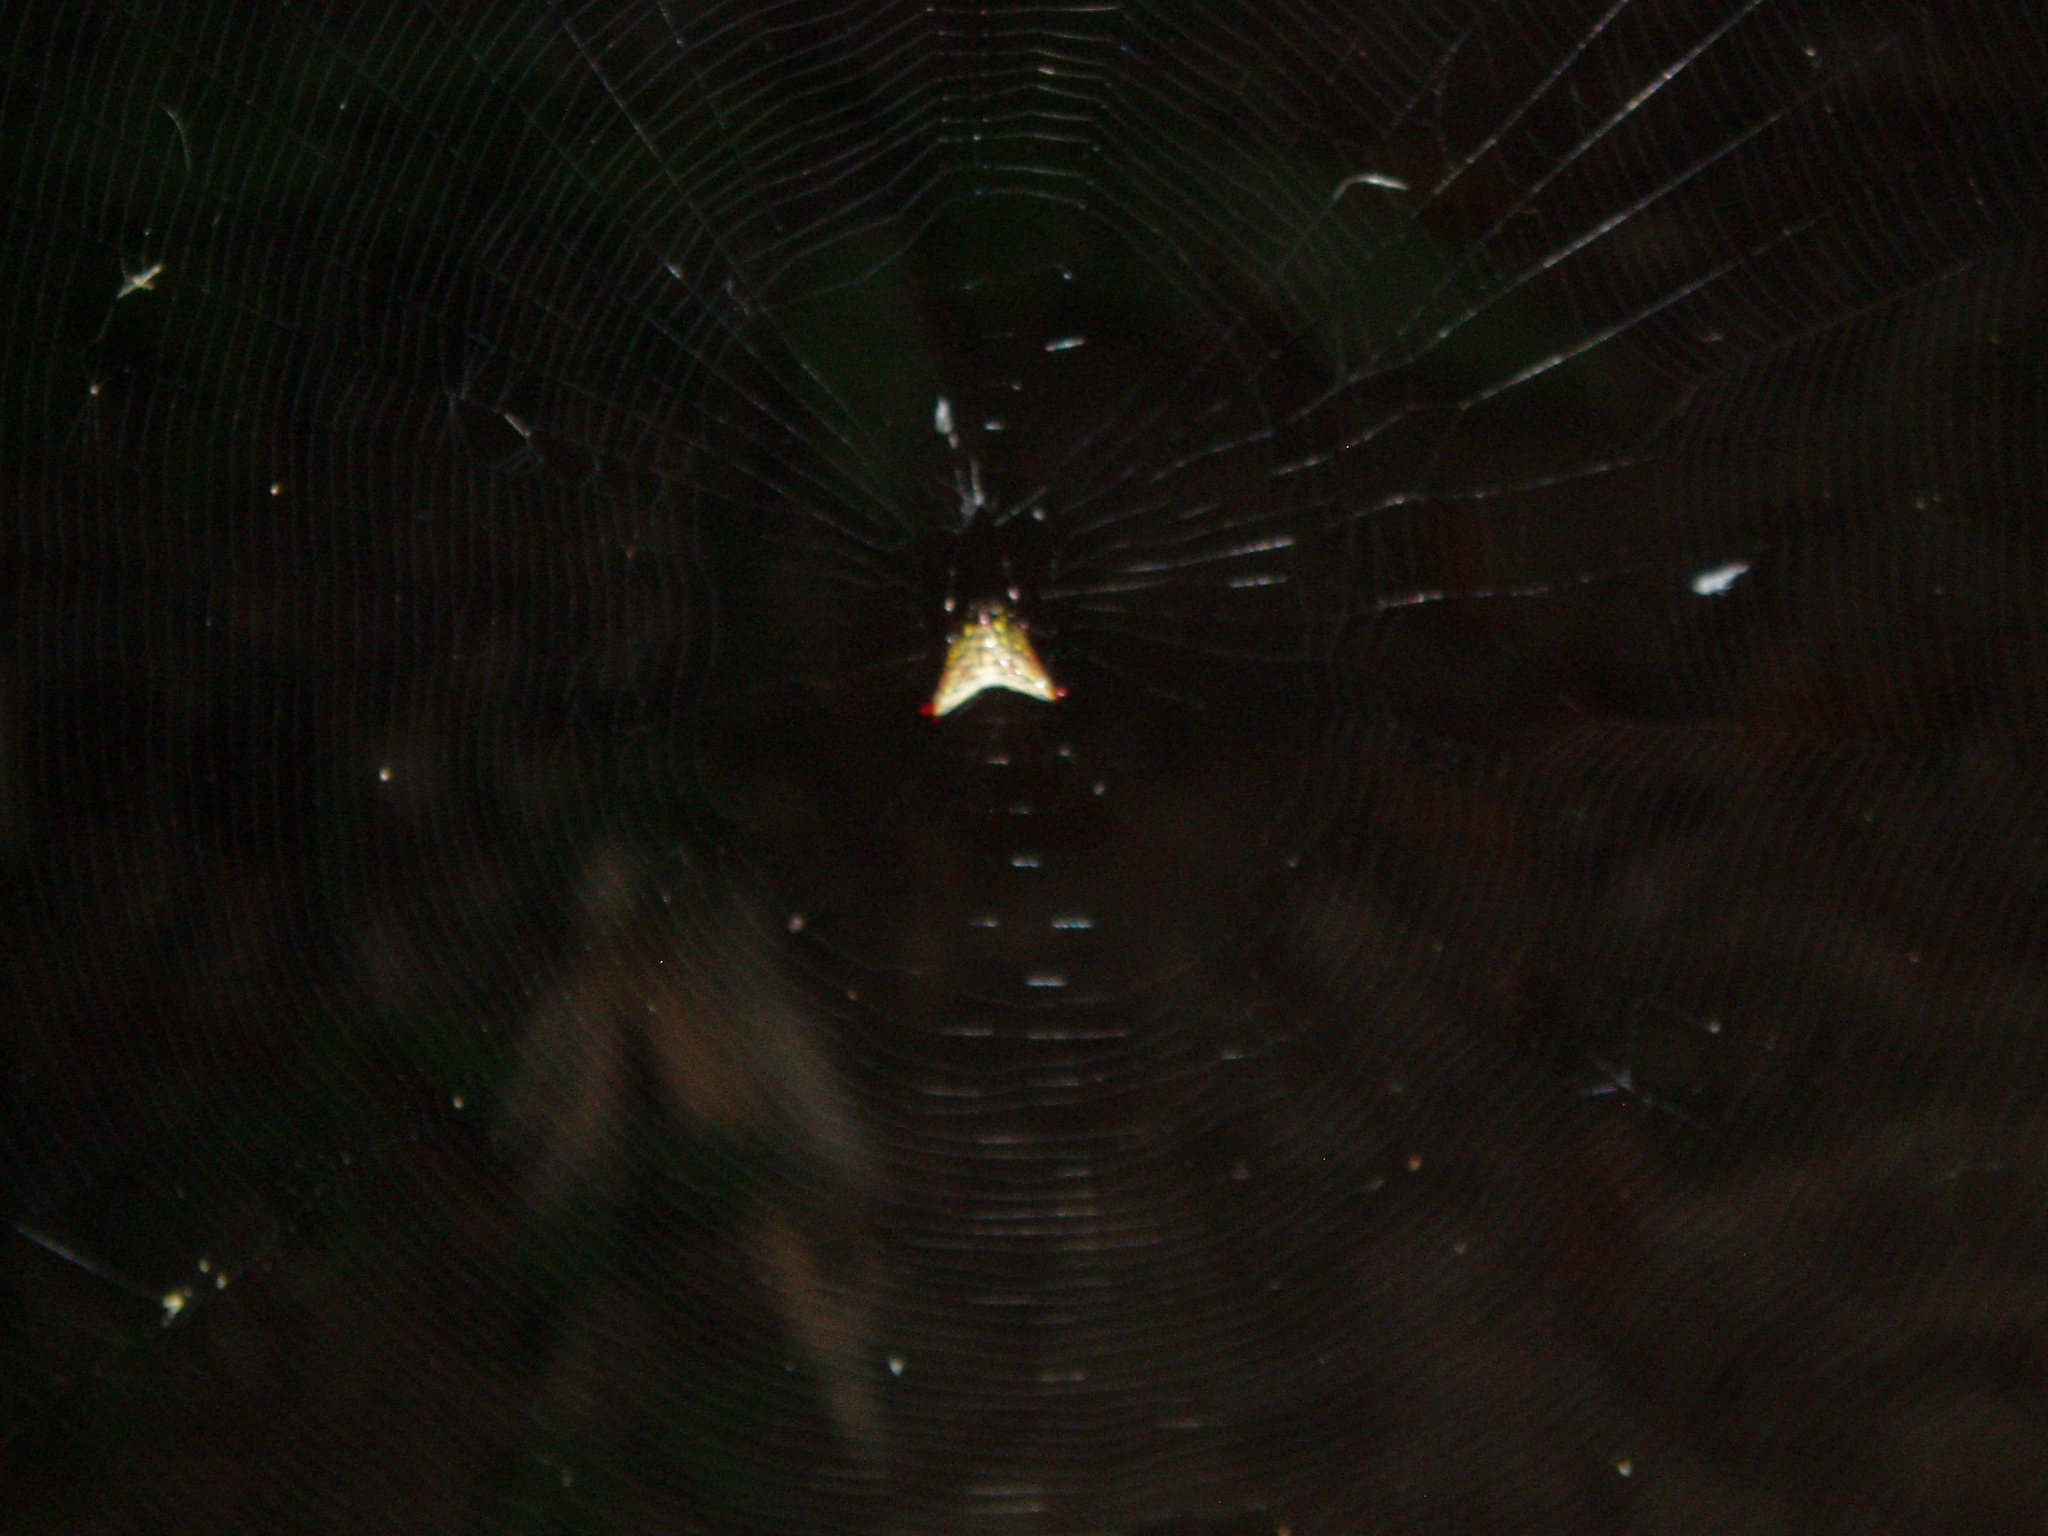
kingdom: Animalia
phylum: Arthropoda
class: Arachnida
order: Araneae
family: Araneidae
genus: Micrathena
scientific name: Micrathena
